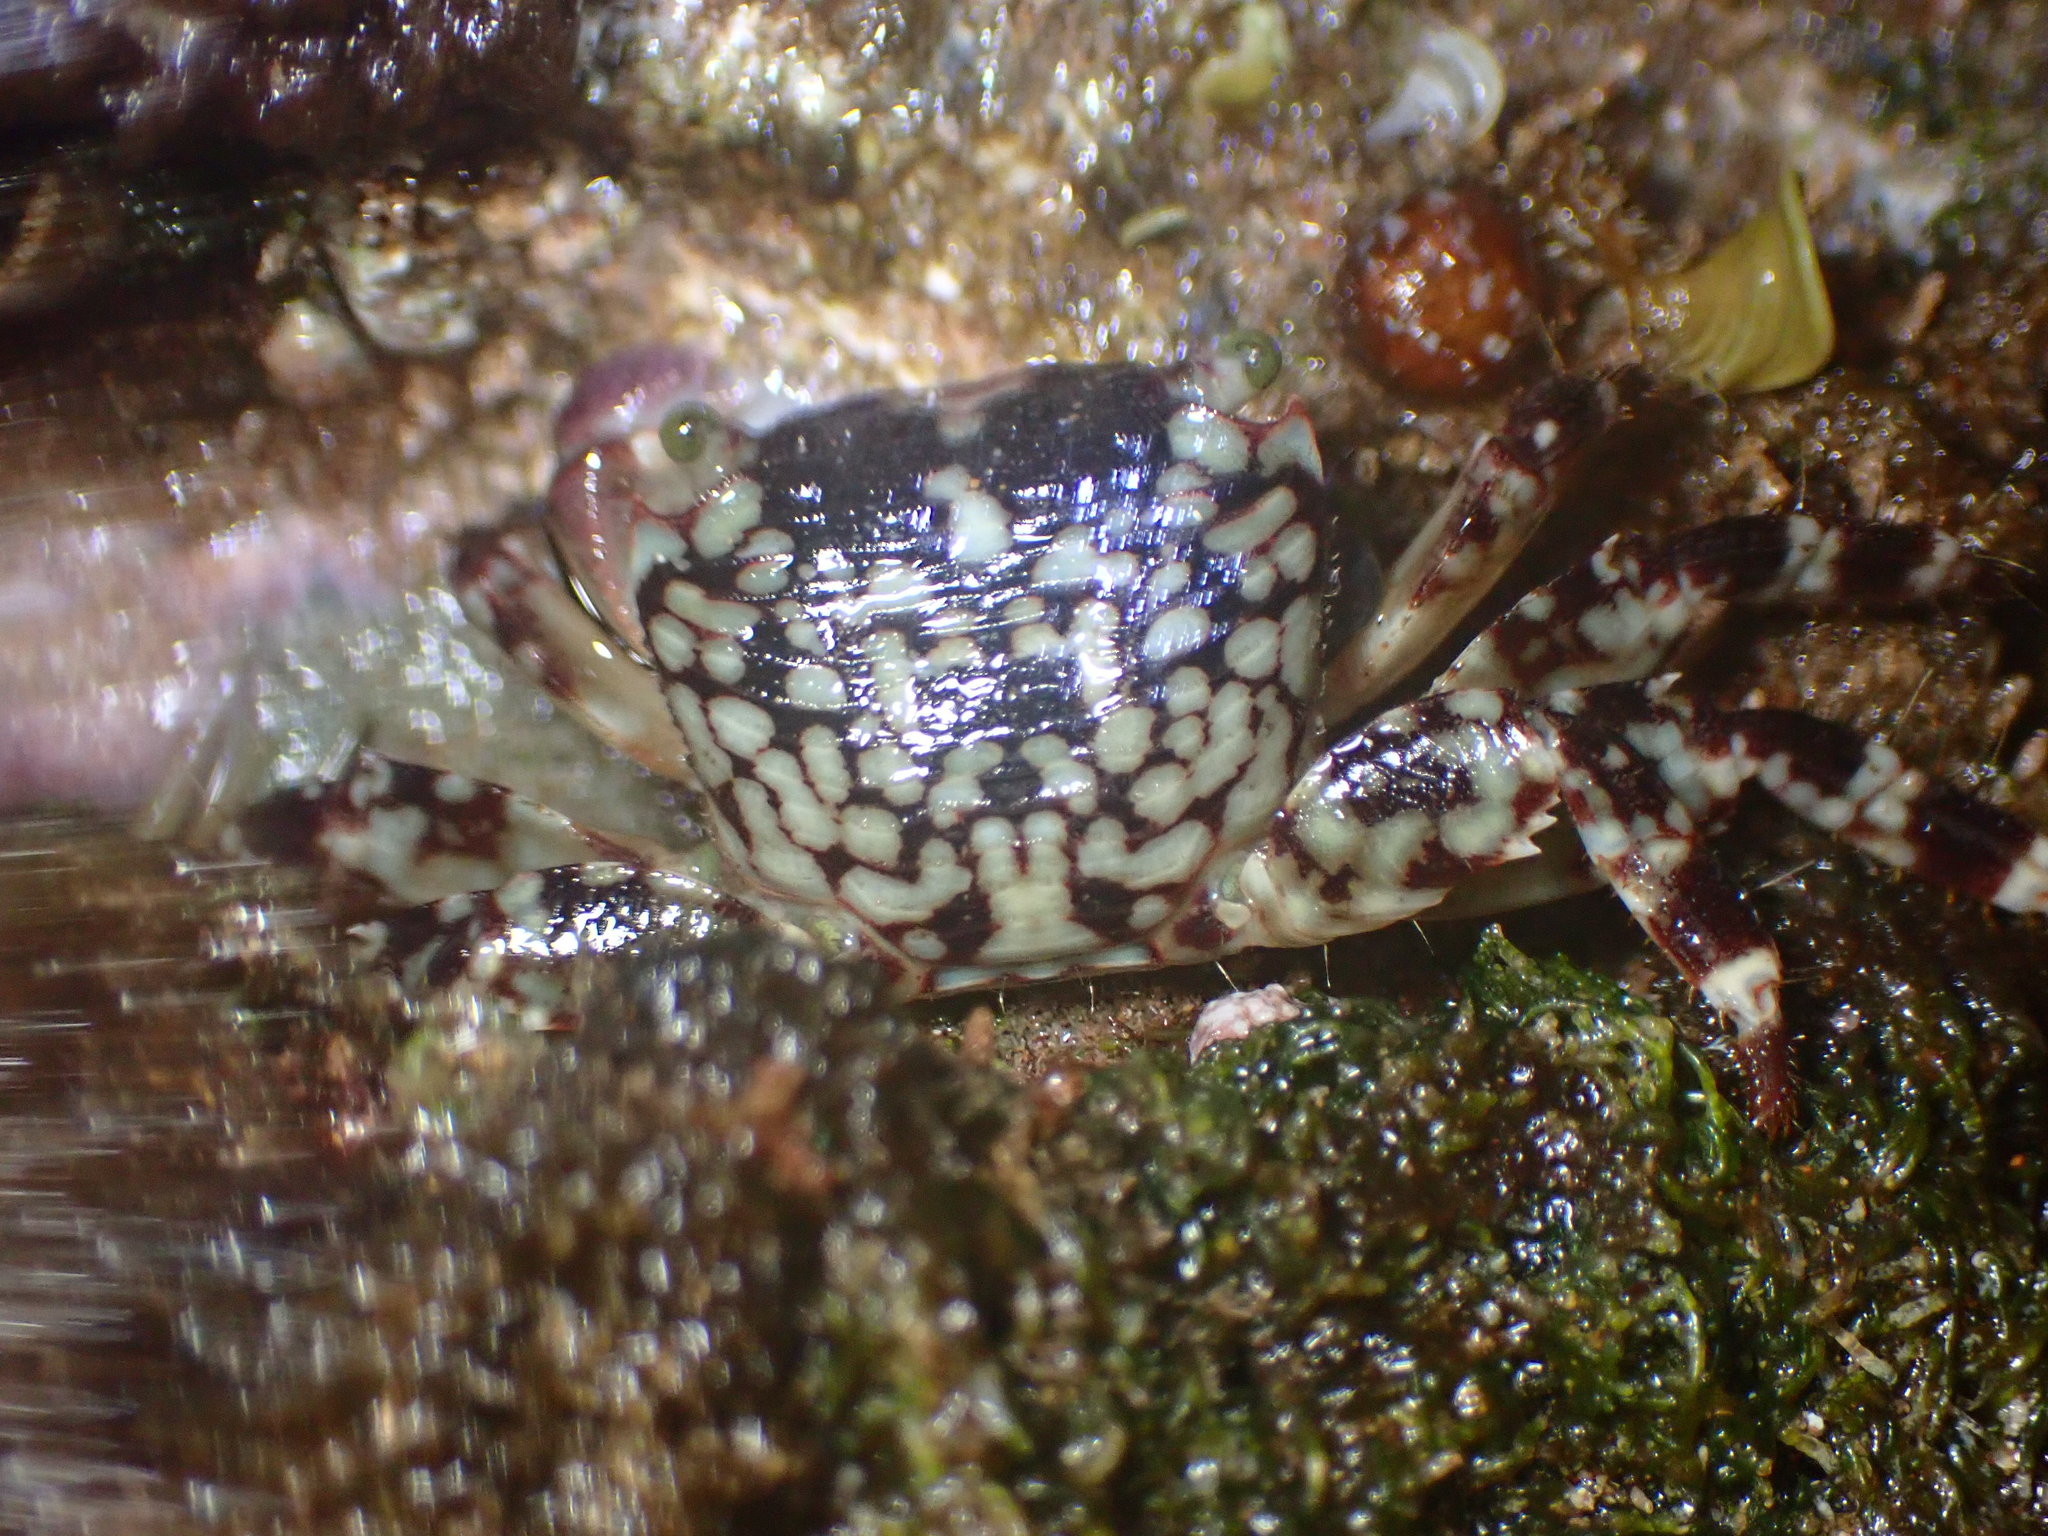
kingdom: Animalia
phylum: Arthropoda
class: Malacostraca
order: Decapoda
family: Grapsidae
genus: Pachygrapsus
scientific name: Pachygrapsus plicatus
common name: Pleated rock crab
